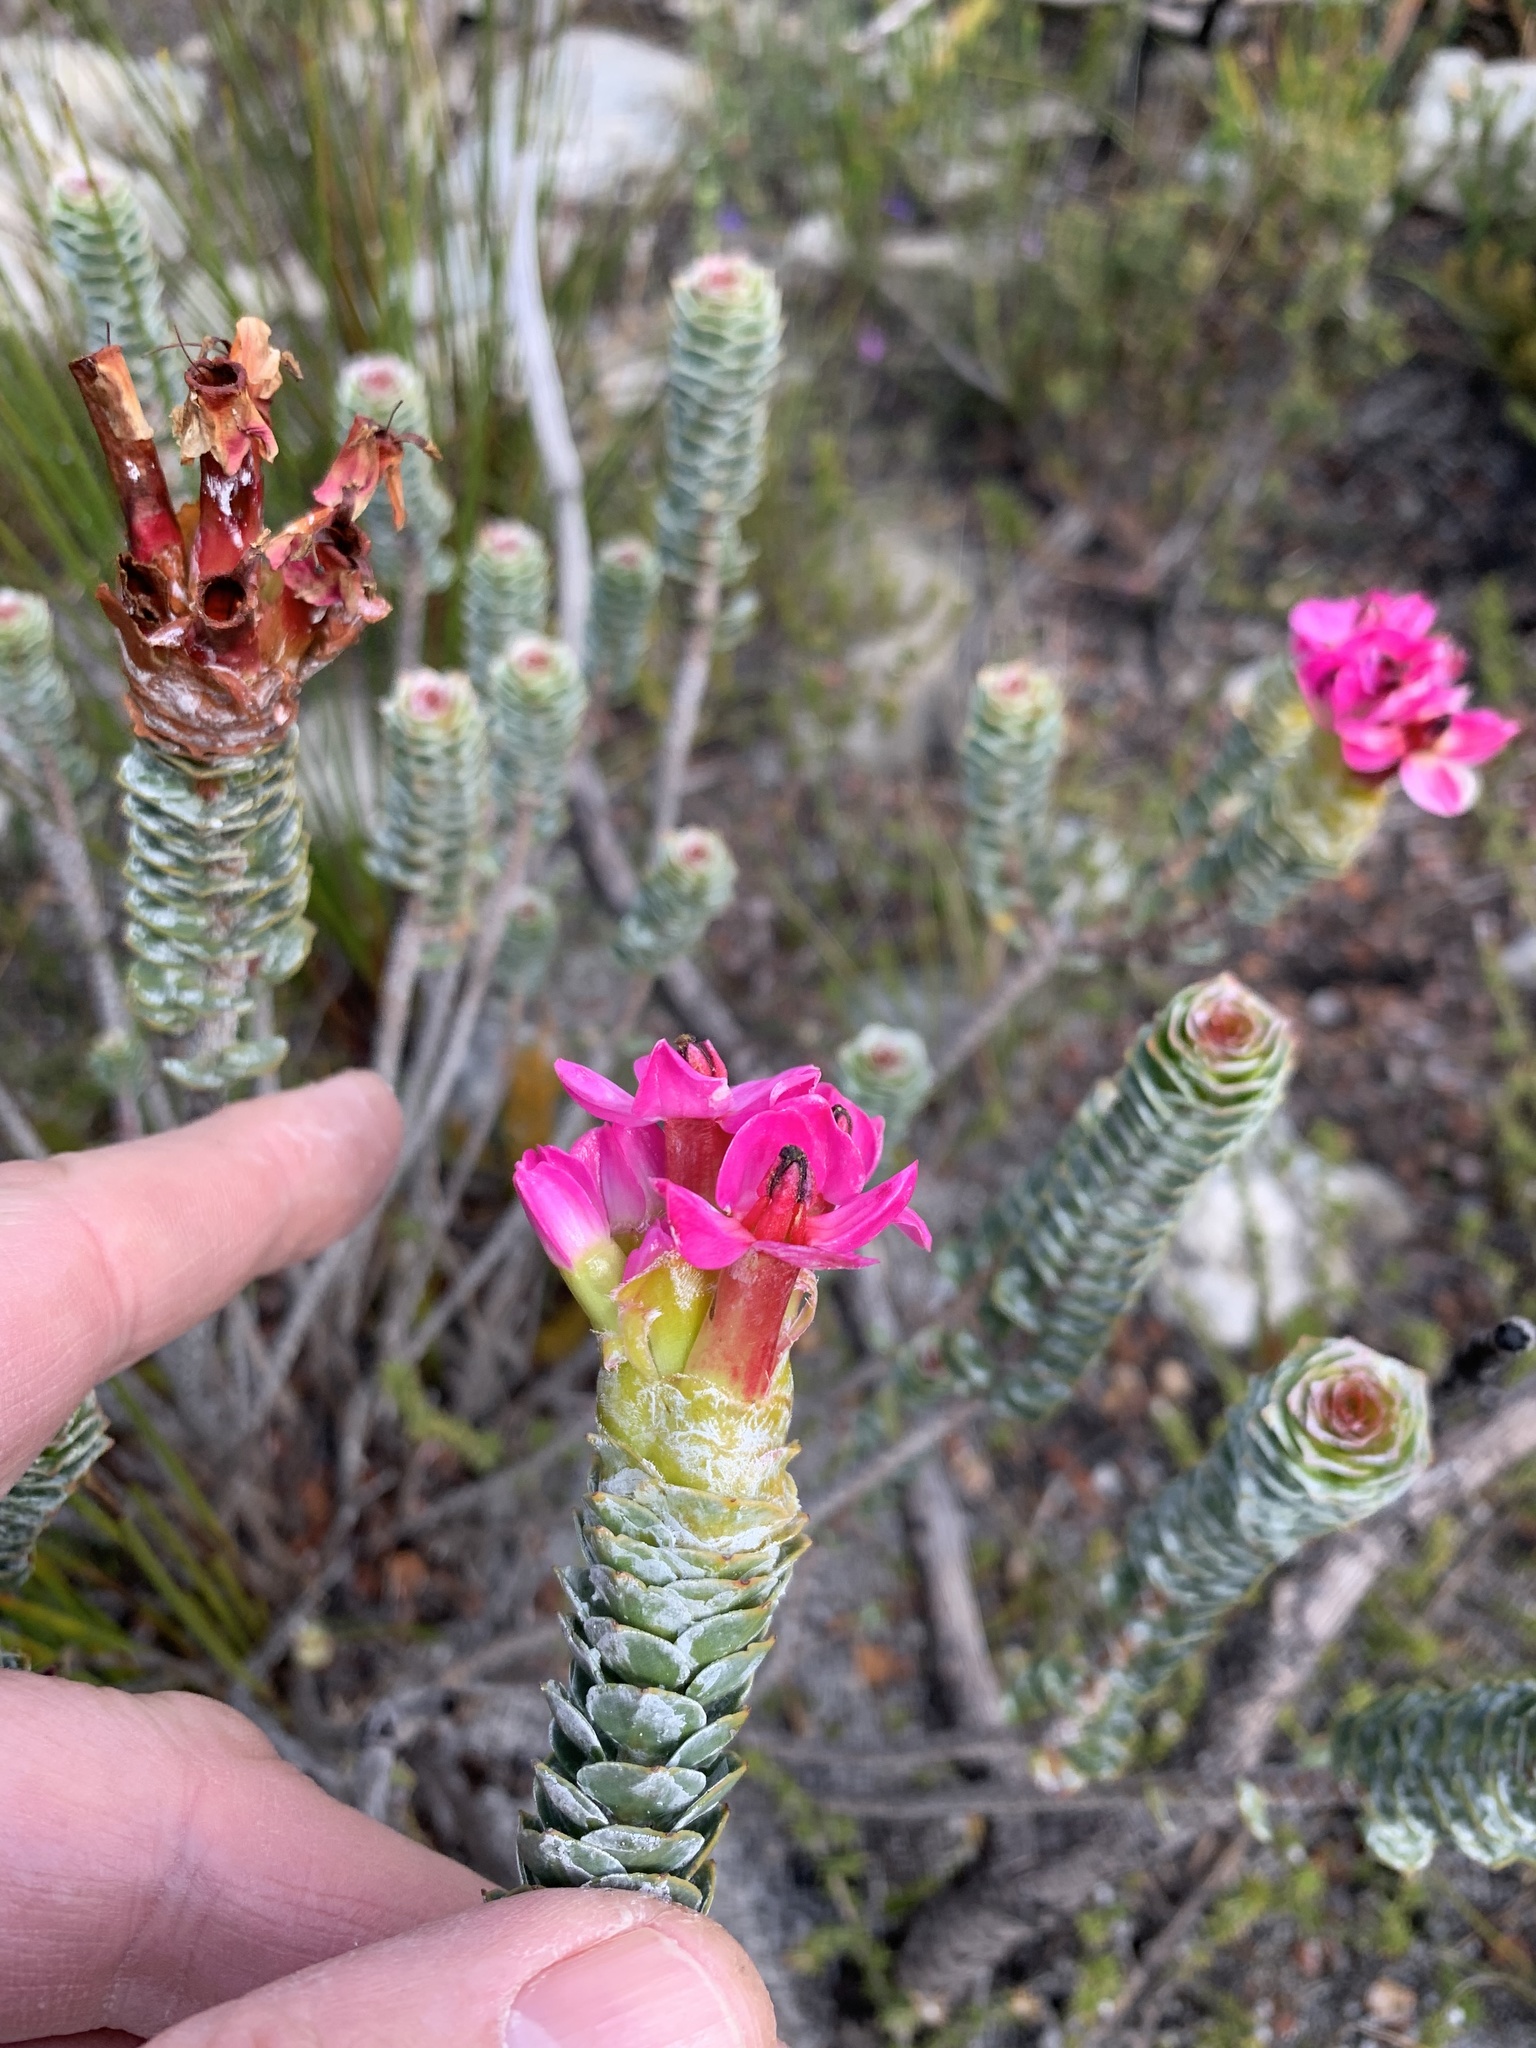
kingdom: Plantae
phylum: Tracheophyta
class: Magnoliopsida
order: Myrtales
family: Penaeaceae
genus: Saltera
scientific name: Saltera sarcocolla
